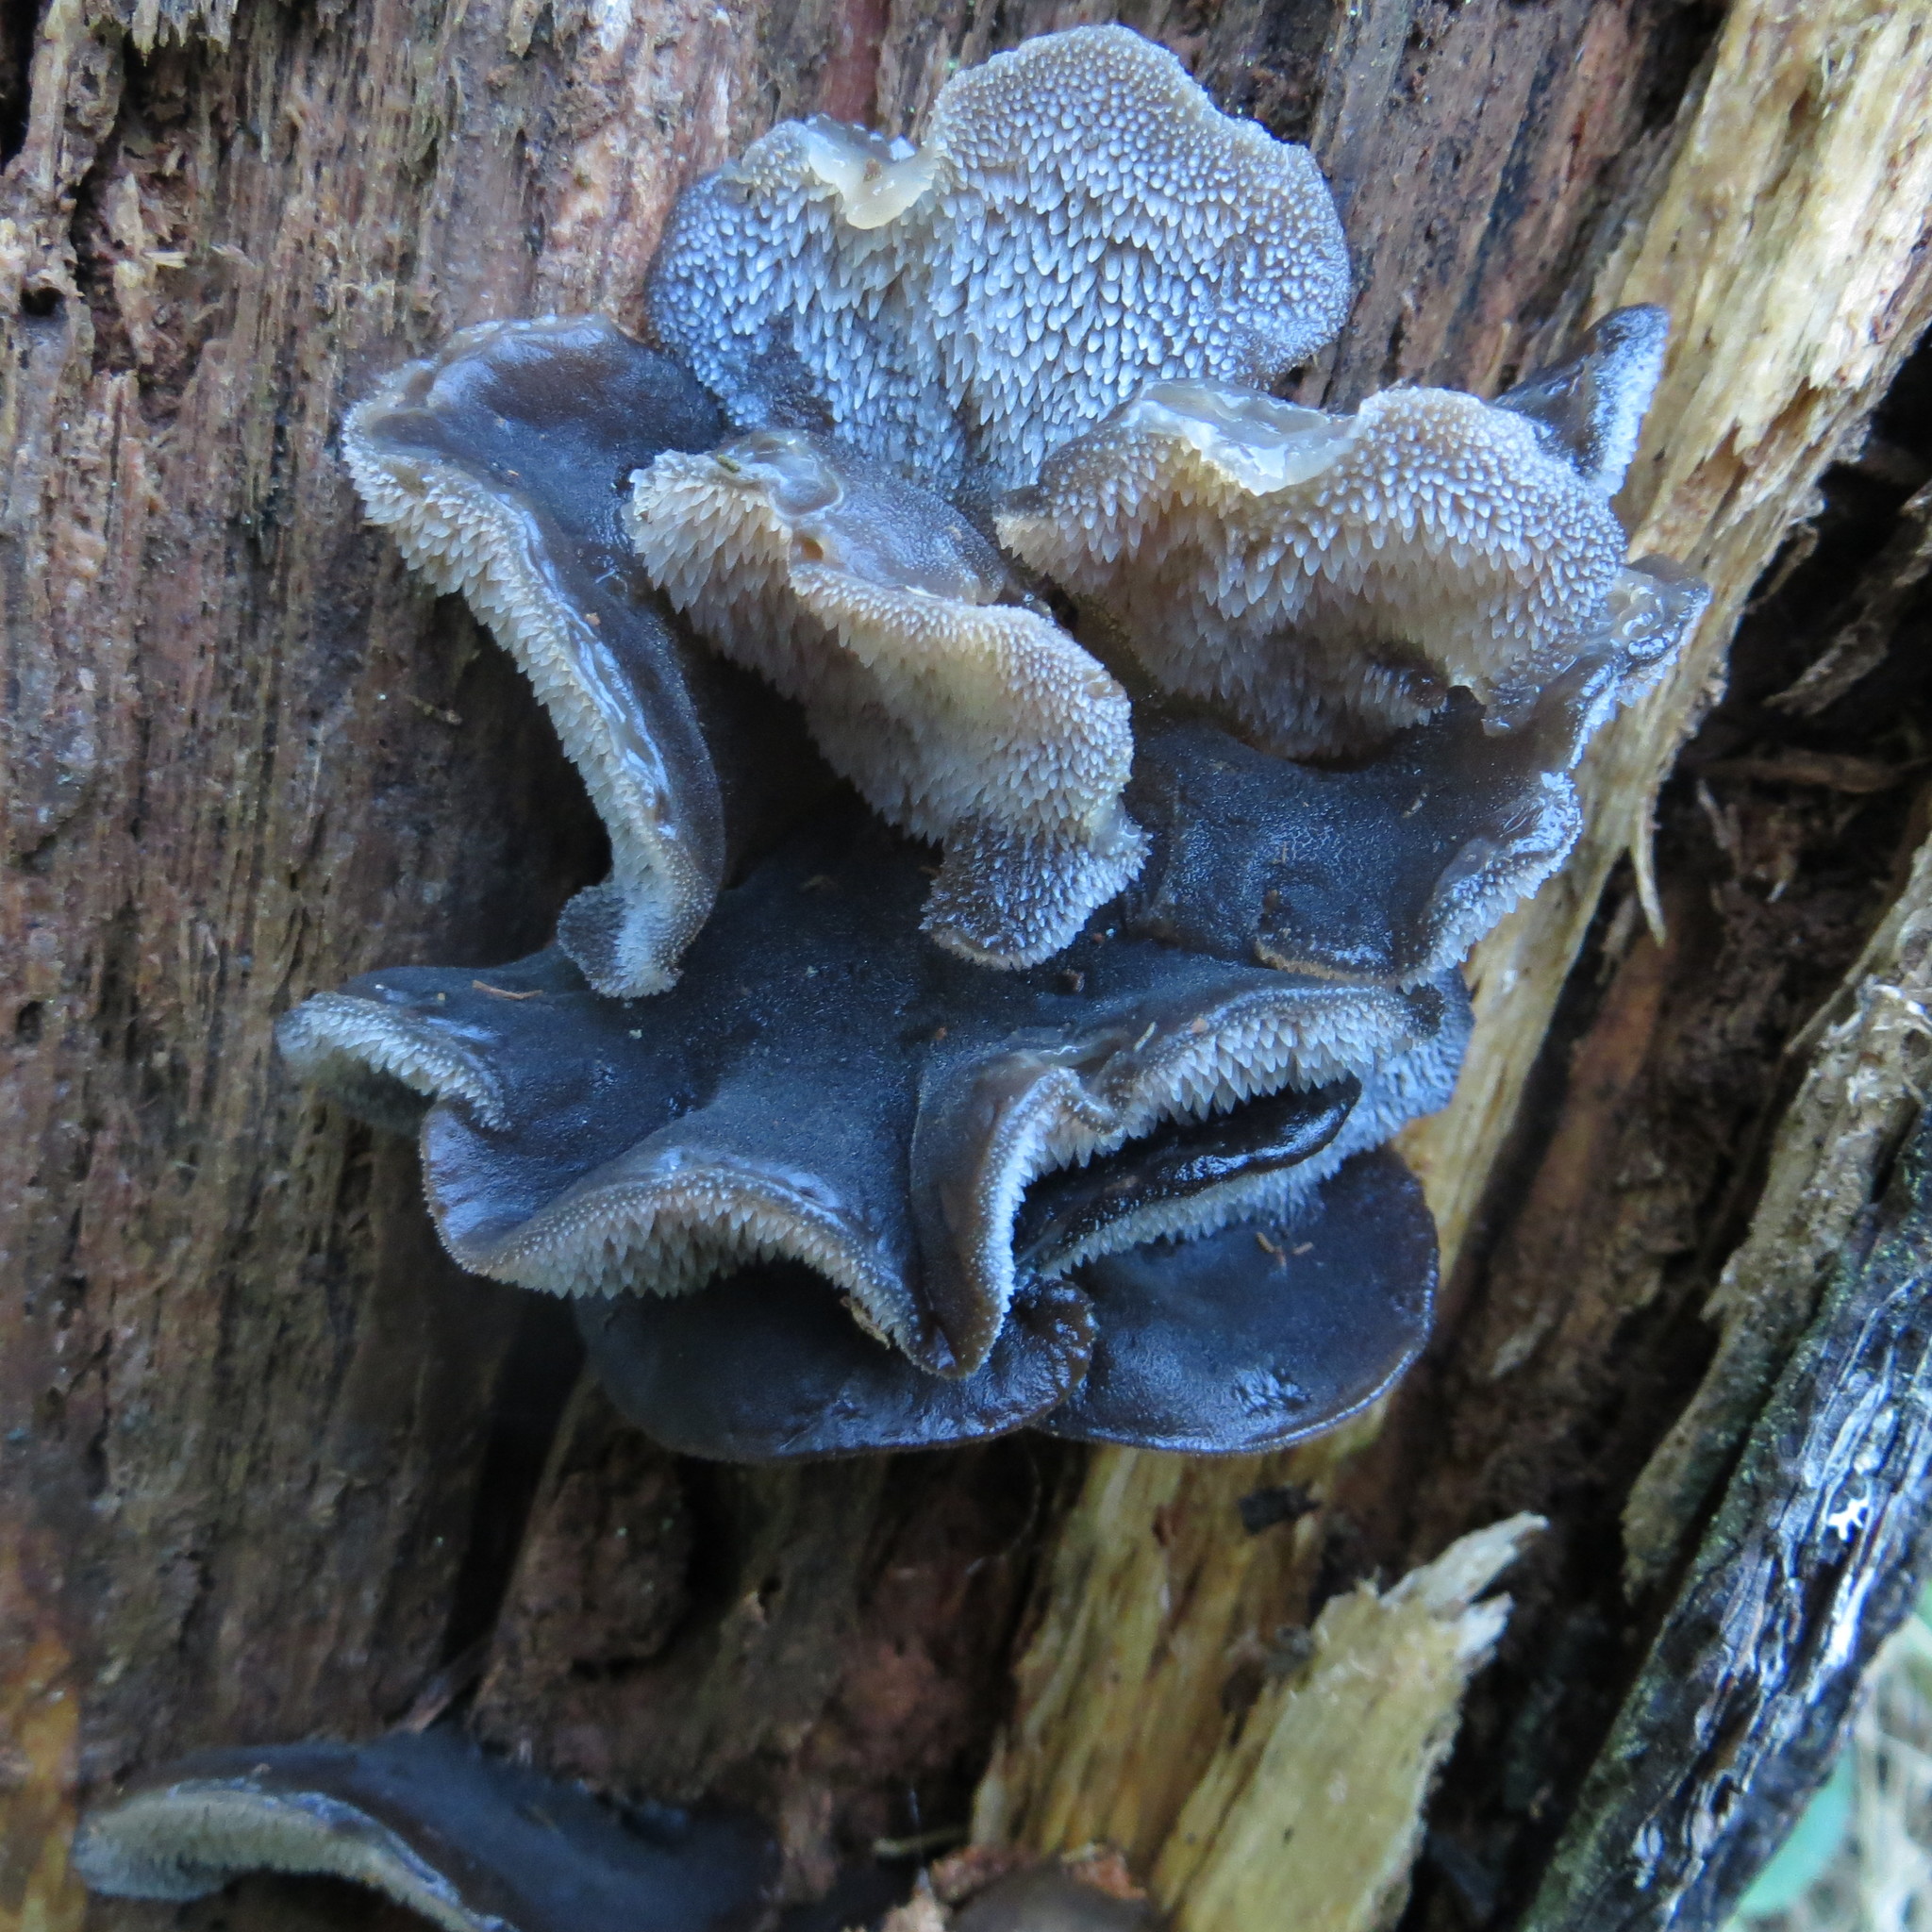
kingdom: Fungi
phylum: Basidiomycota
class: Agaricomycetes
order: Auriculariales
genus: Pseudohydnum
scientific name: Pseudohydnum orbiculare
